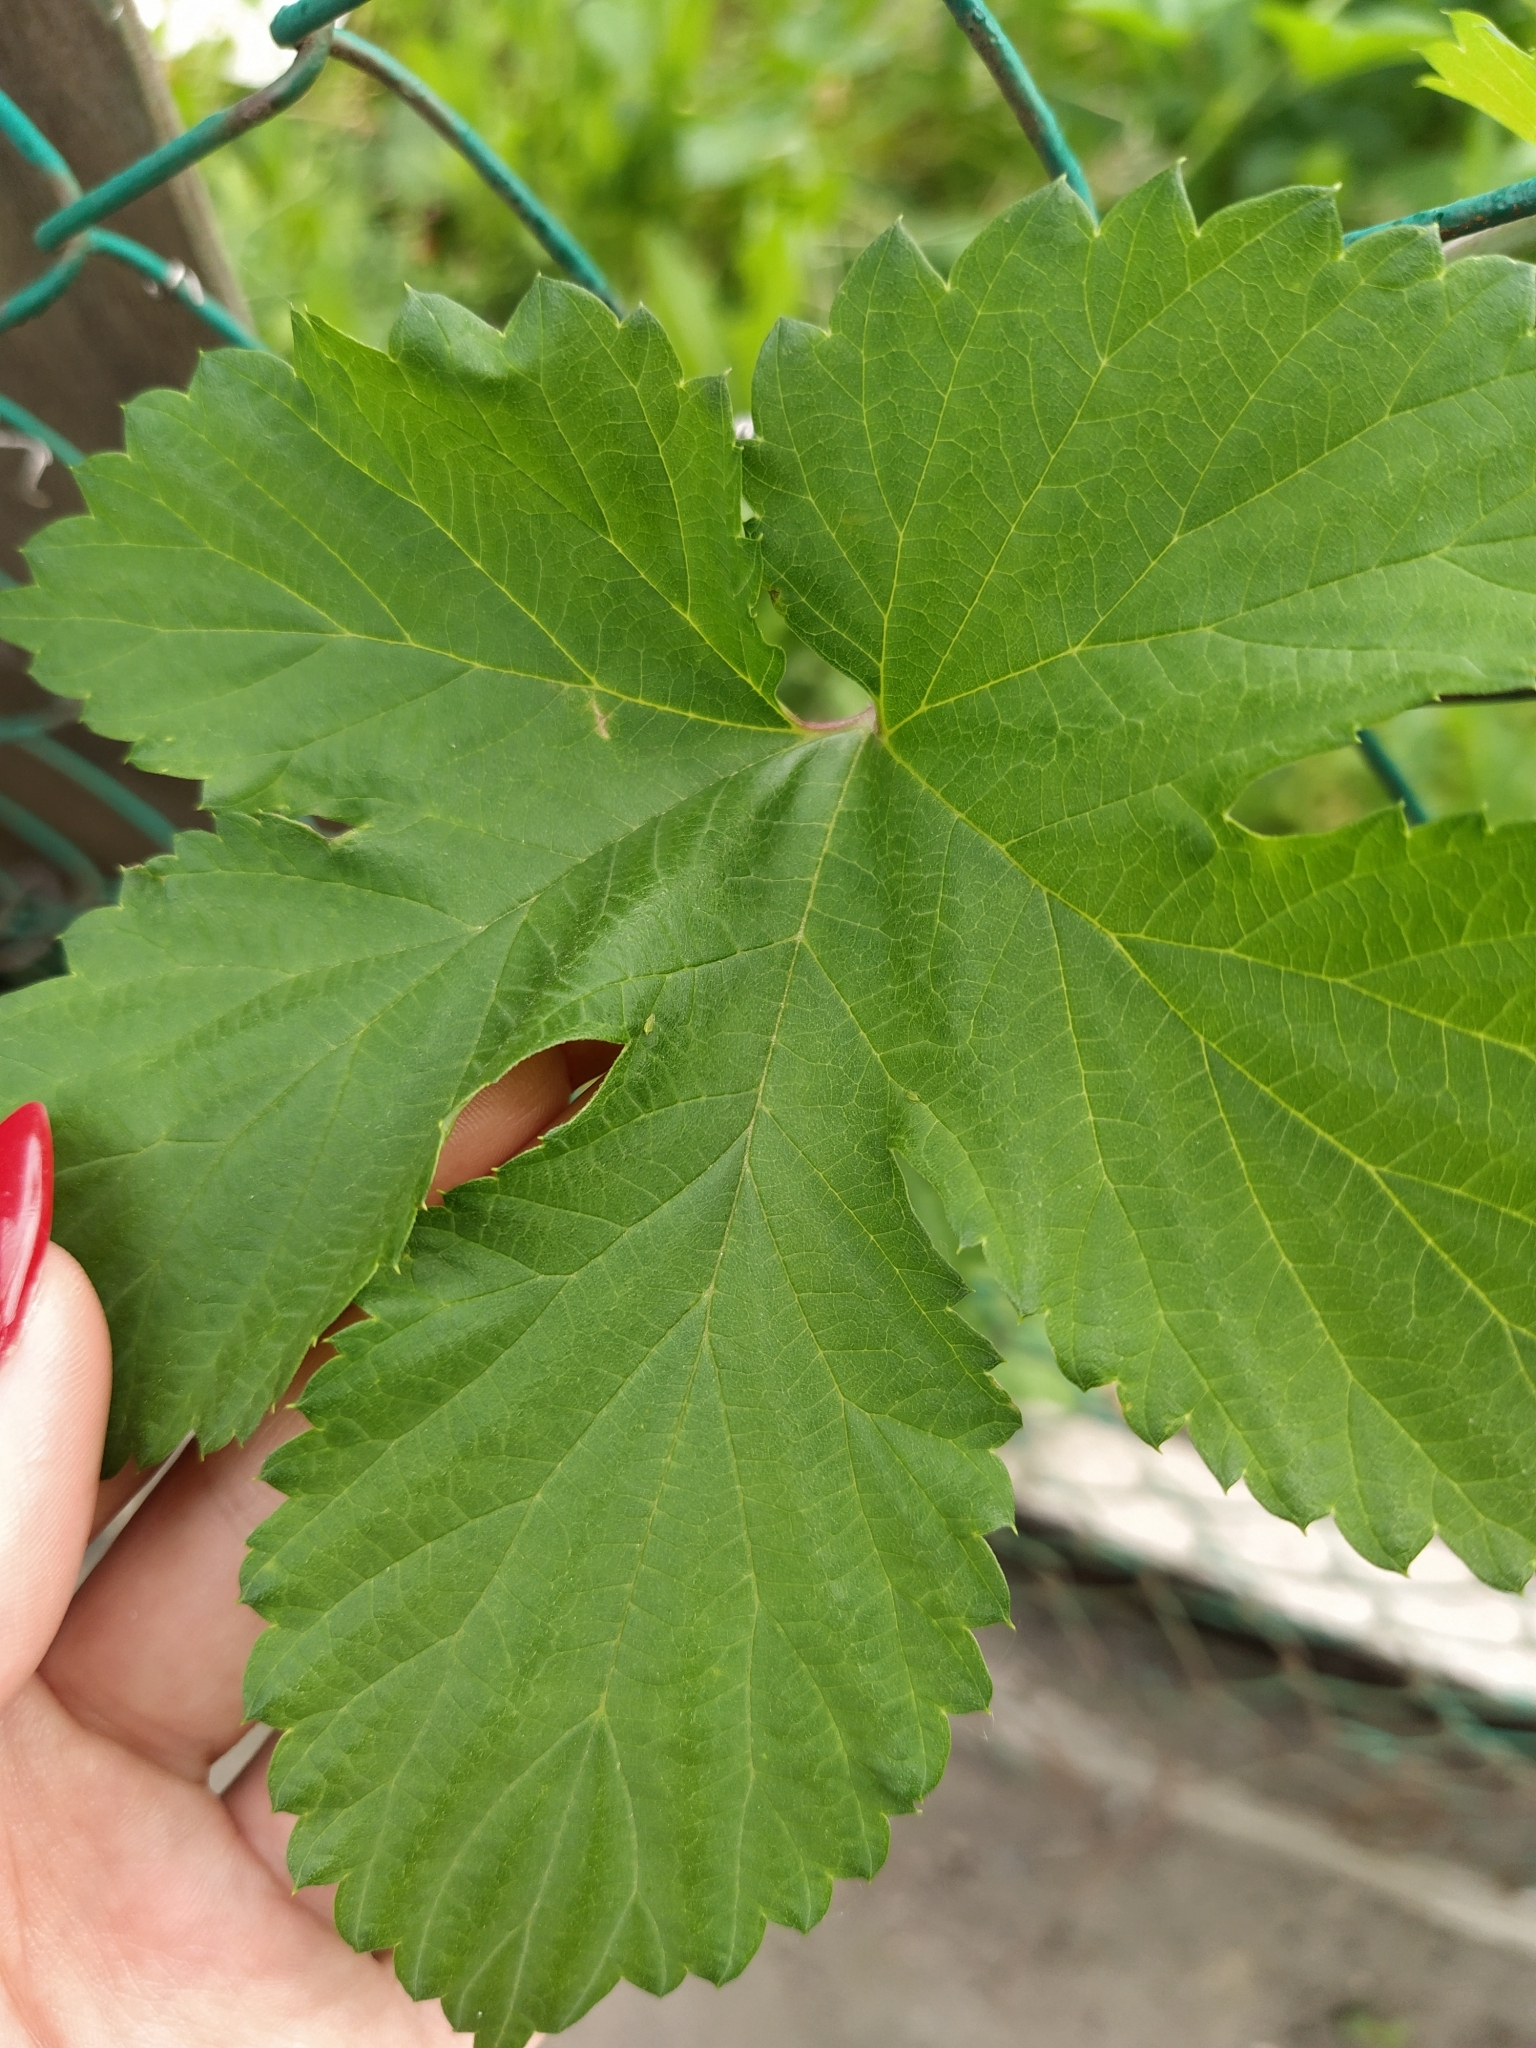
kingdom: Plantae
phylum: Tracheophyta
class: Magnoliopsida
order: Rosales
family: Cannabaceae
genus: Humulus
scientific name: Humulus lupulus
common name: Hop
